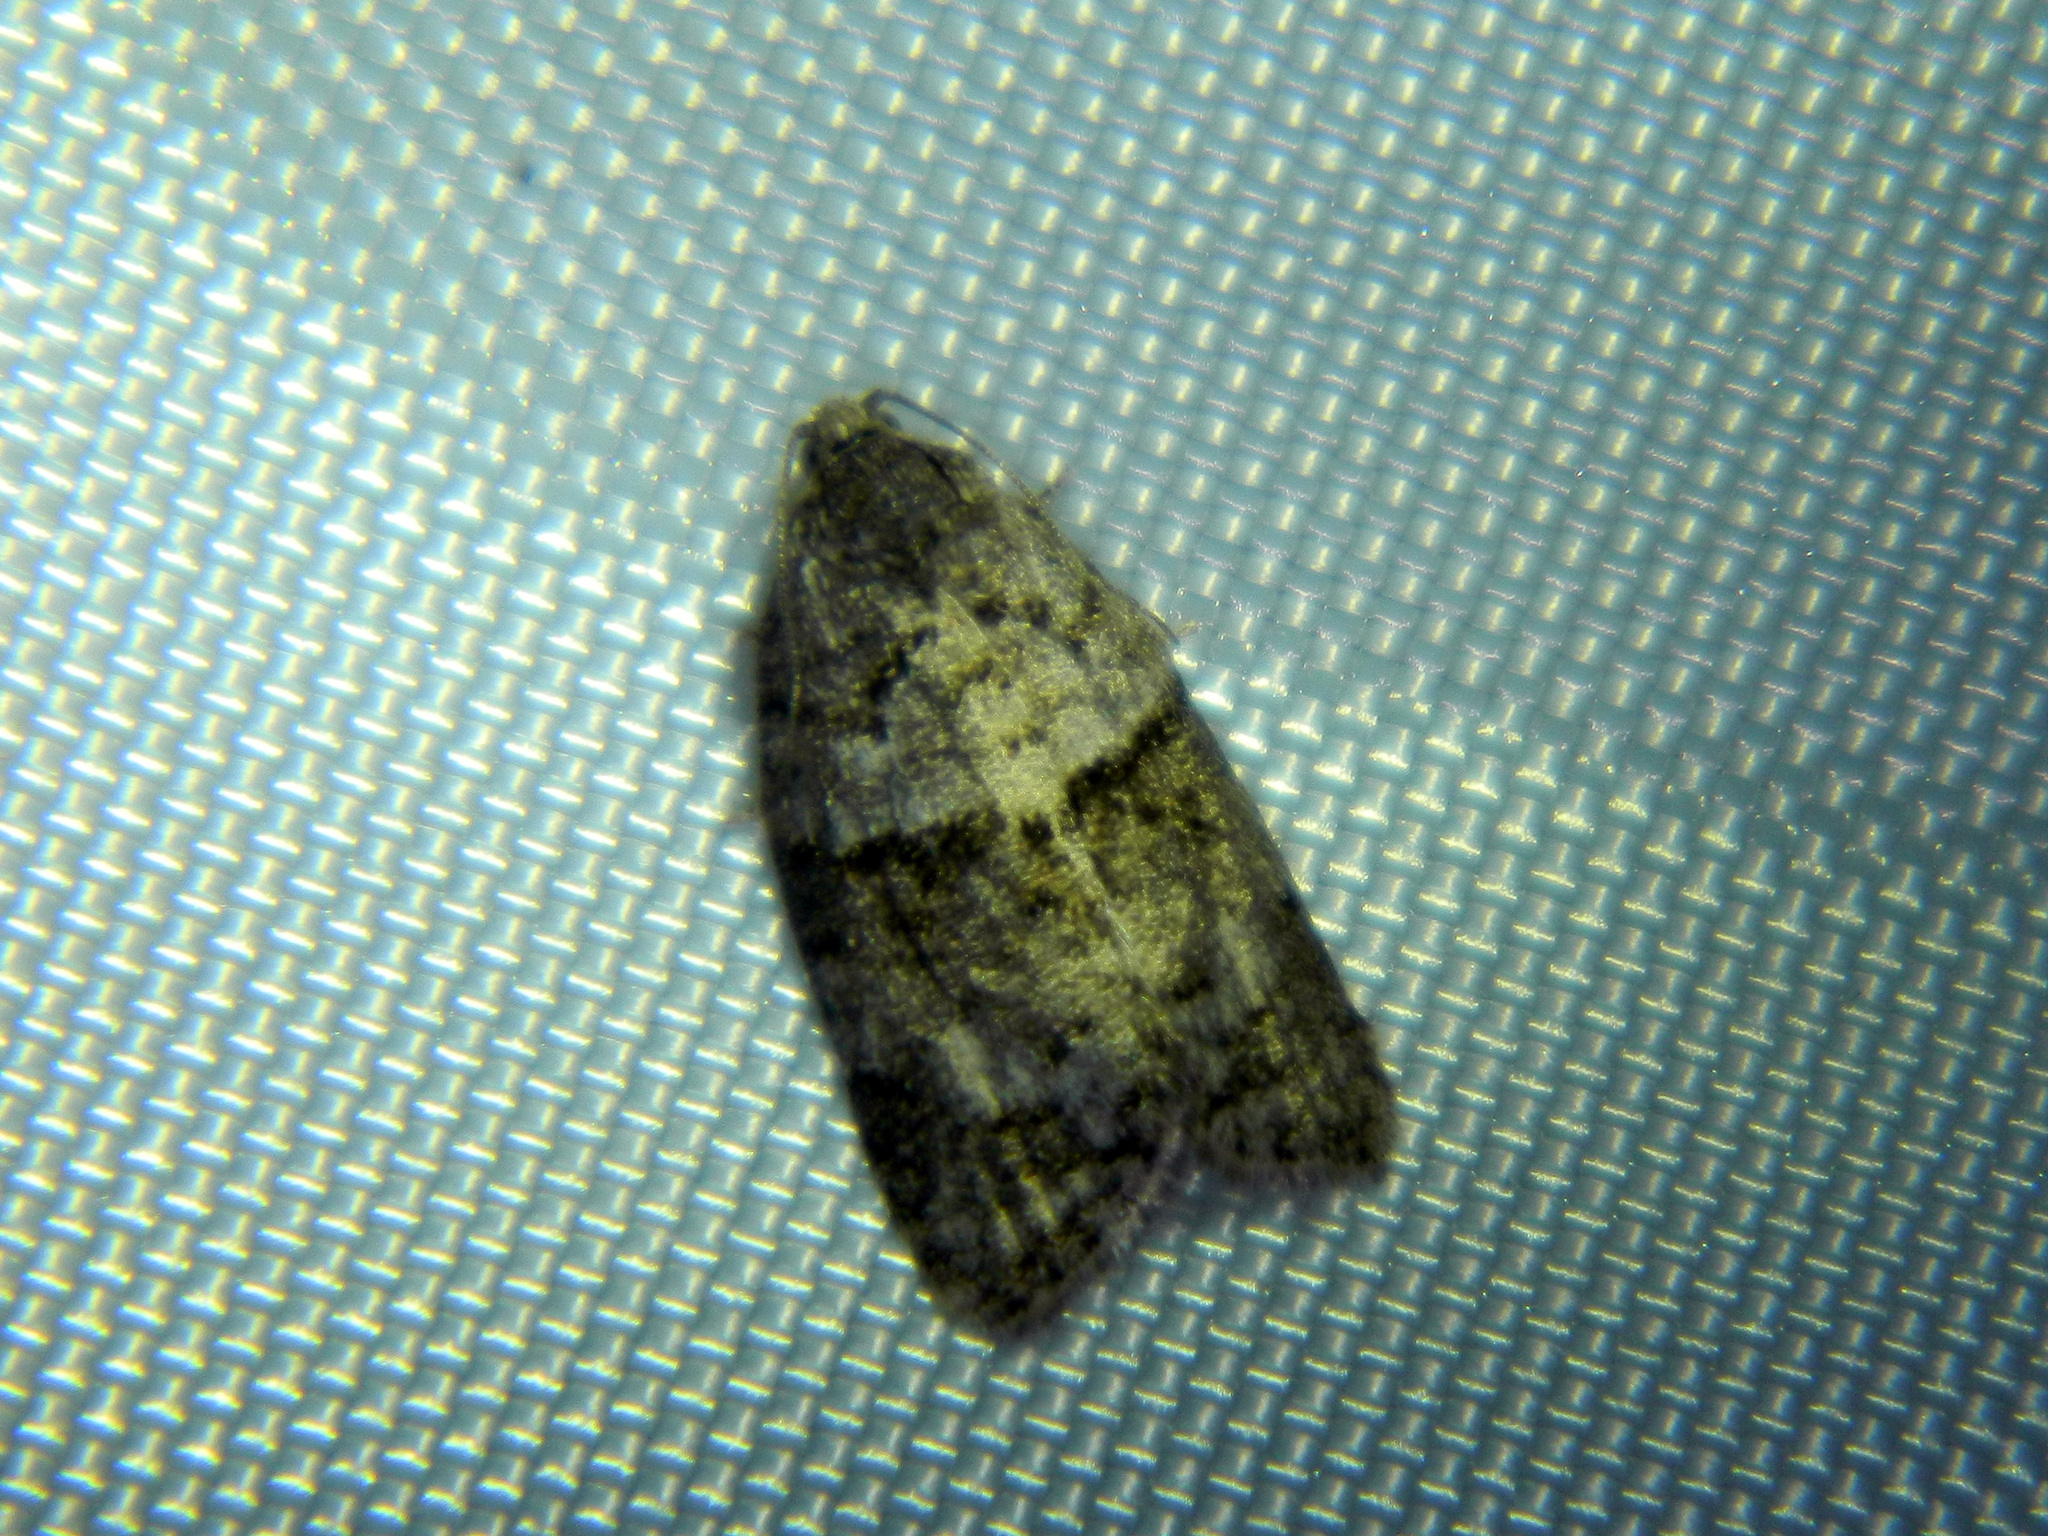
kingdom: Animalia
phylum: Arthropoda
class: Insecta
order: Lepidoptera
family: Tortricidae
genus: Syndemis
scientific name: Syndemis afflictana
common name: Gray leafroller moth
